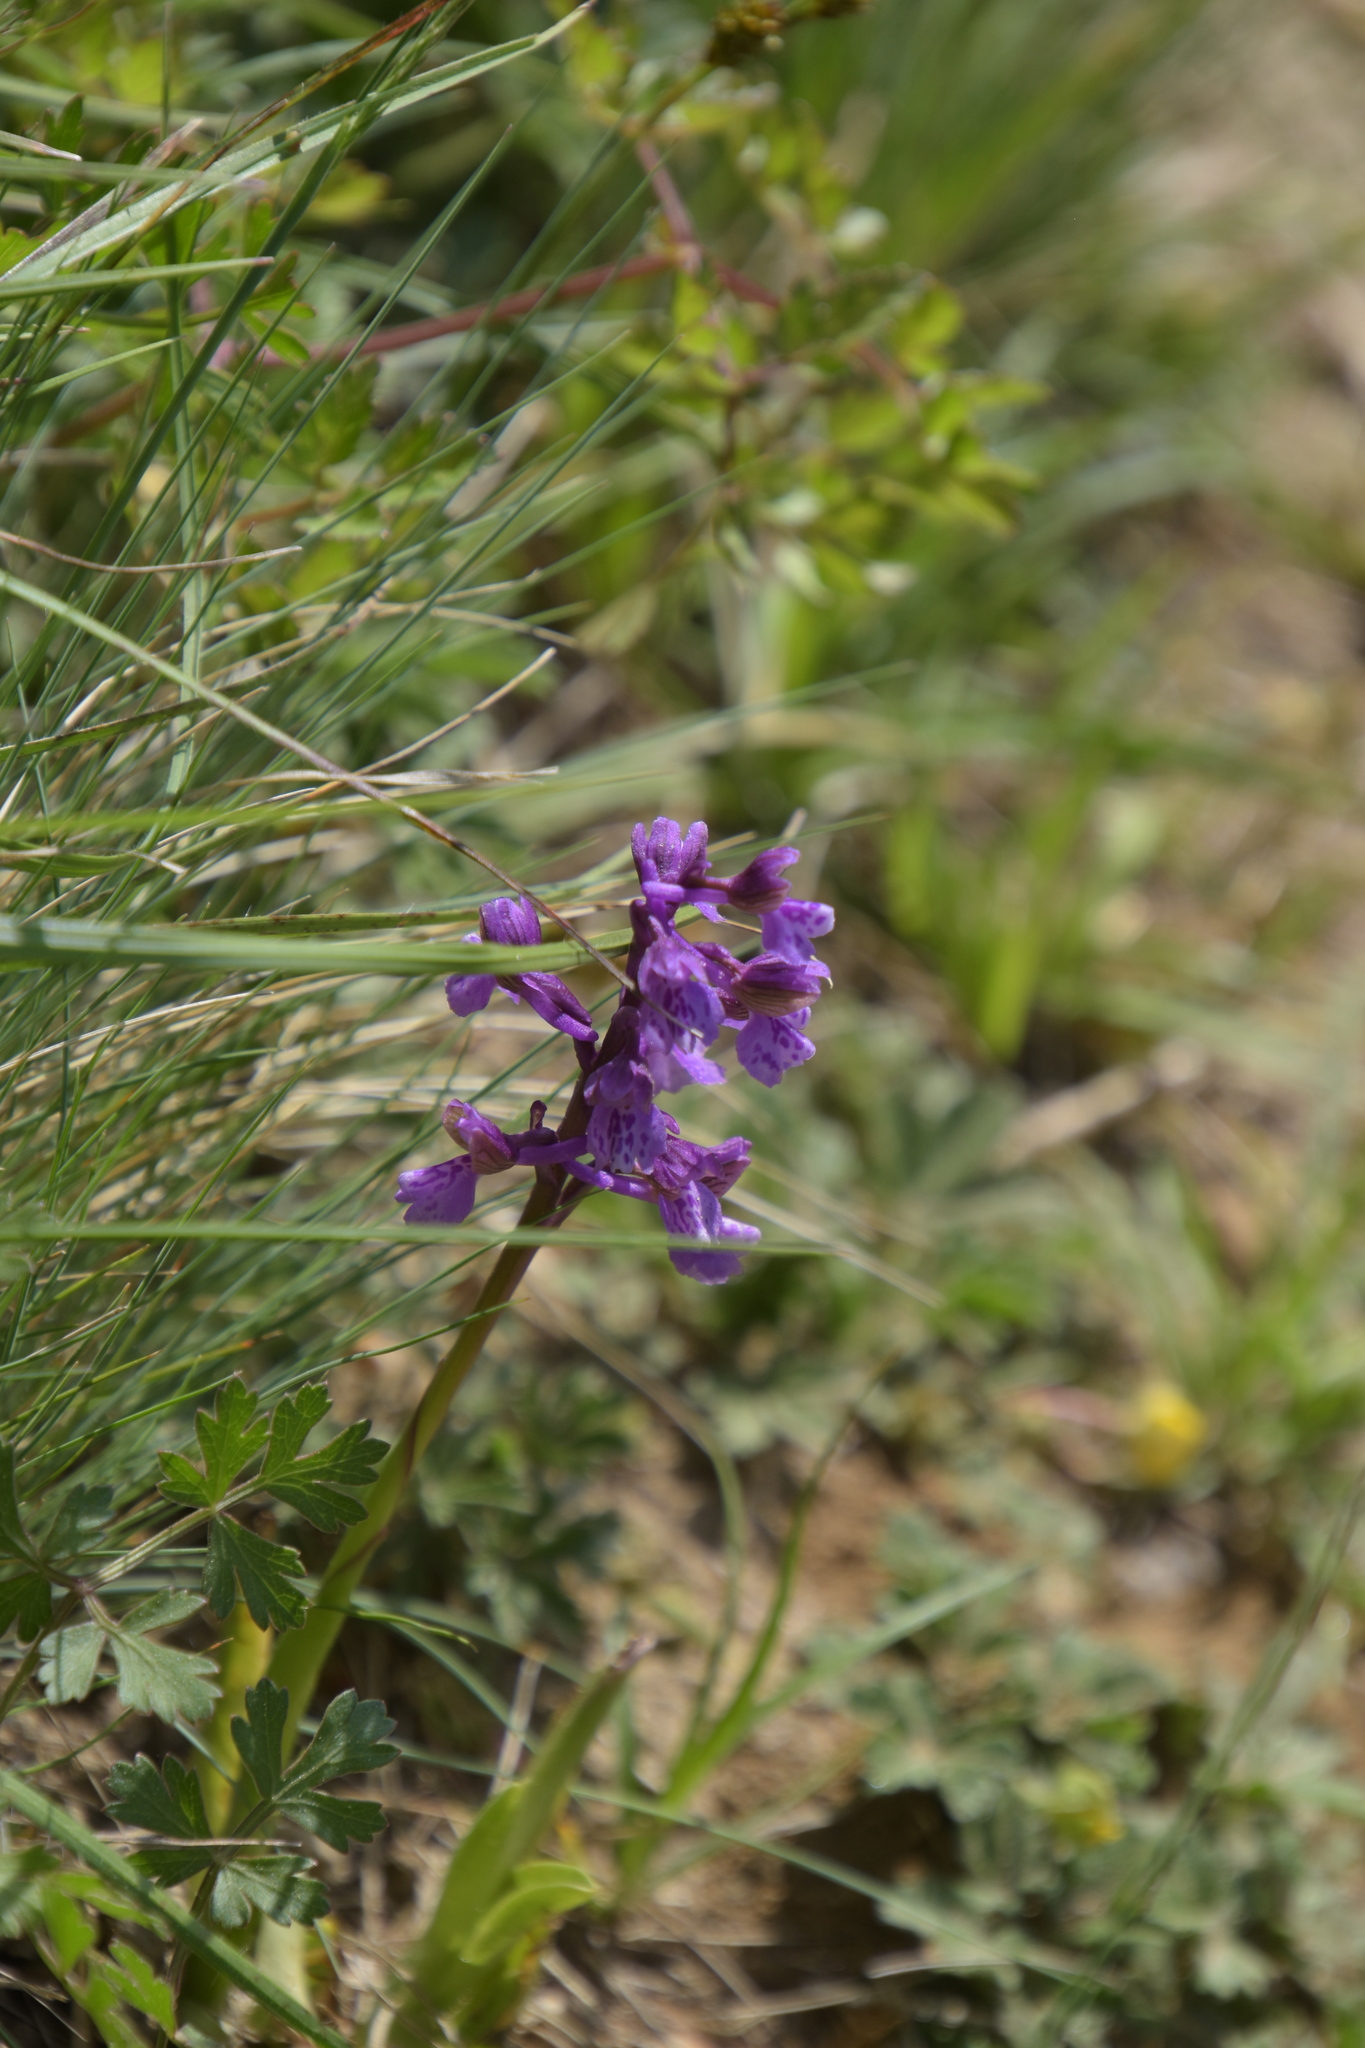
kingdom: Plantae
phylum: Tracheophyta
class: Liliopsida
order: Asparagales
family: Orchidaceae
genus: Anacamptis
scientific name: Anacamptis morio
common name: Green-winged orchid
